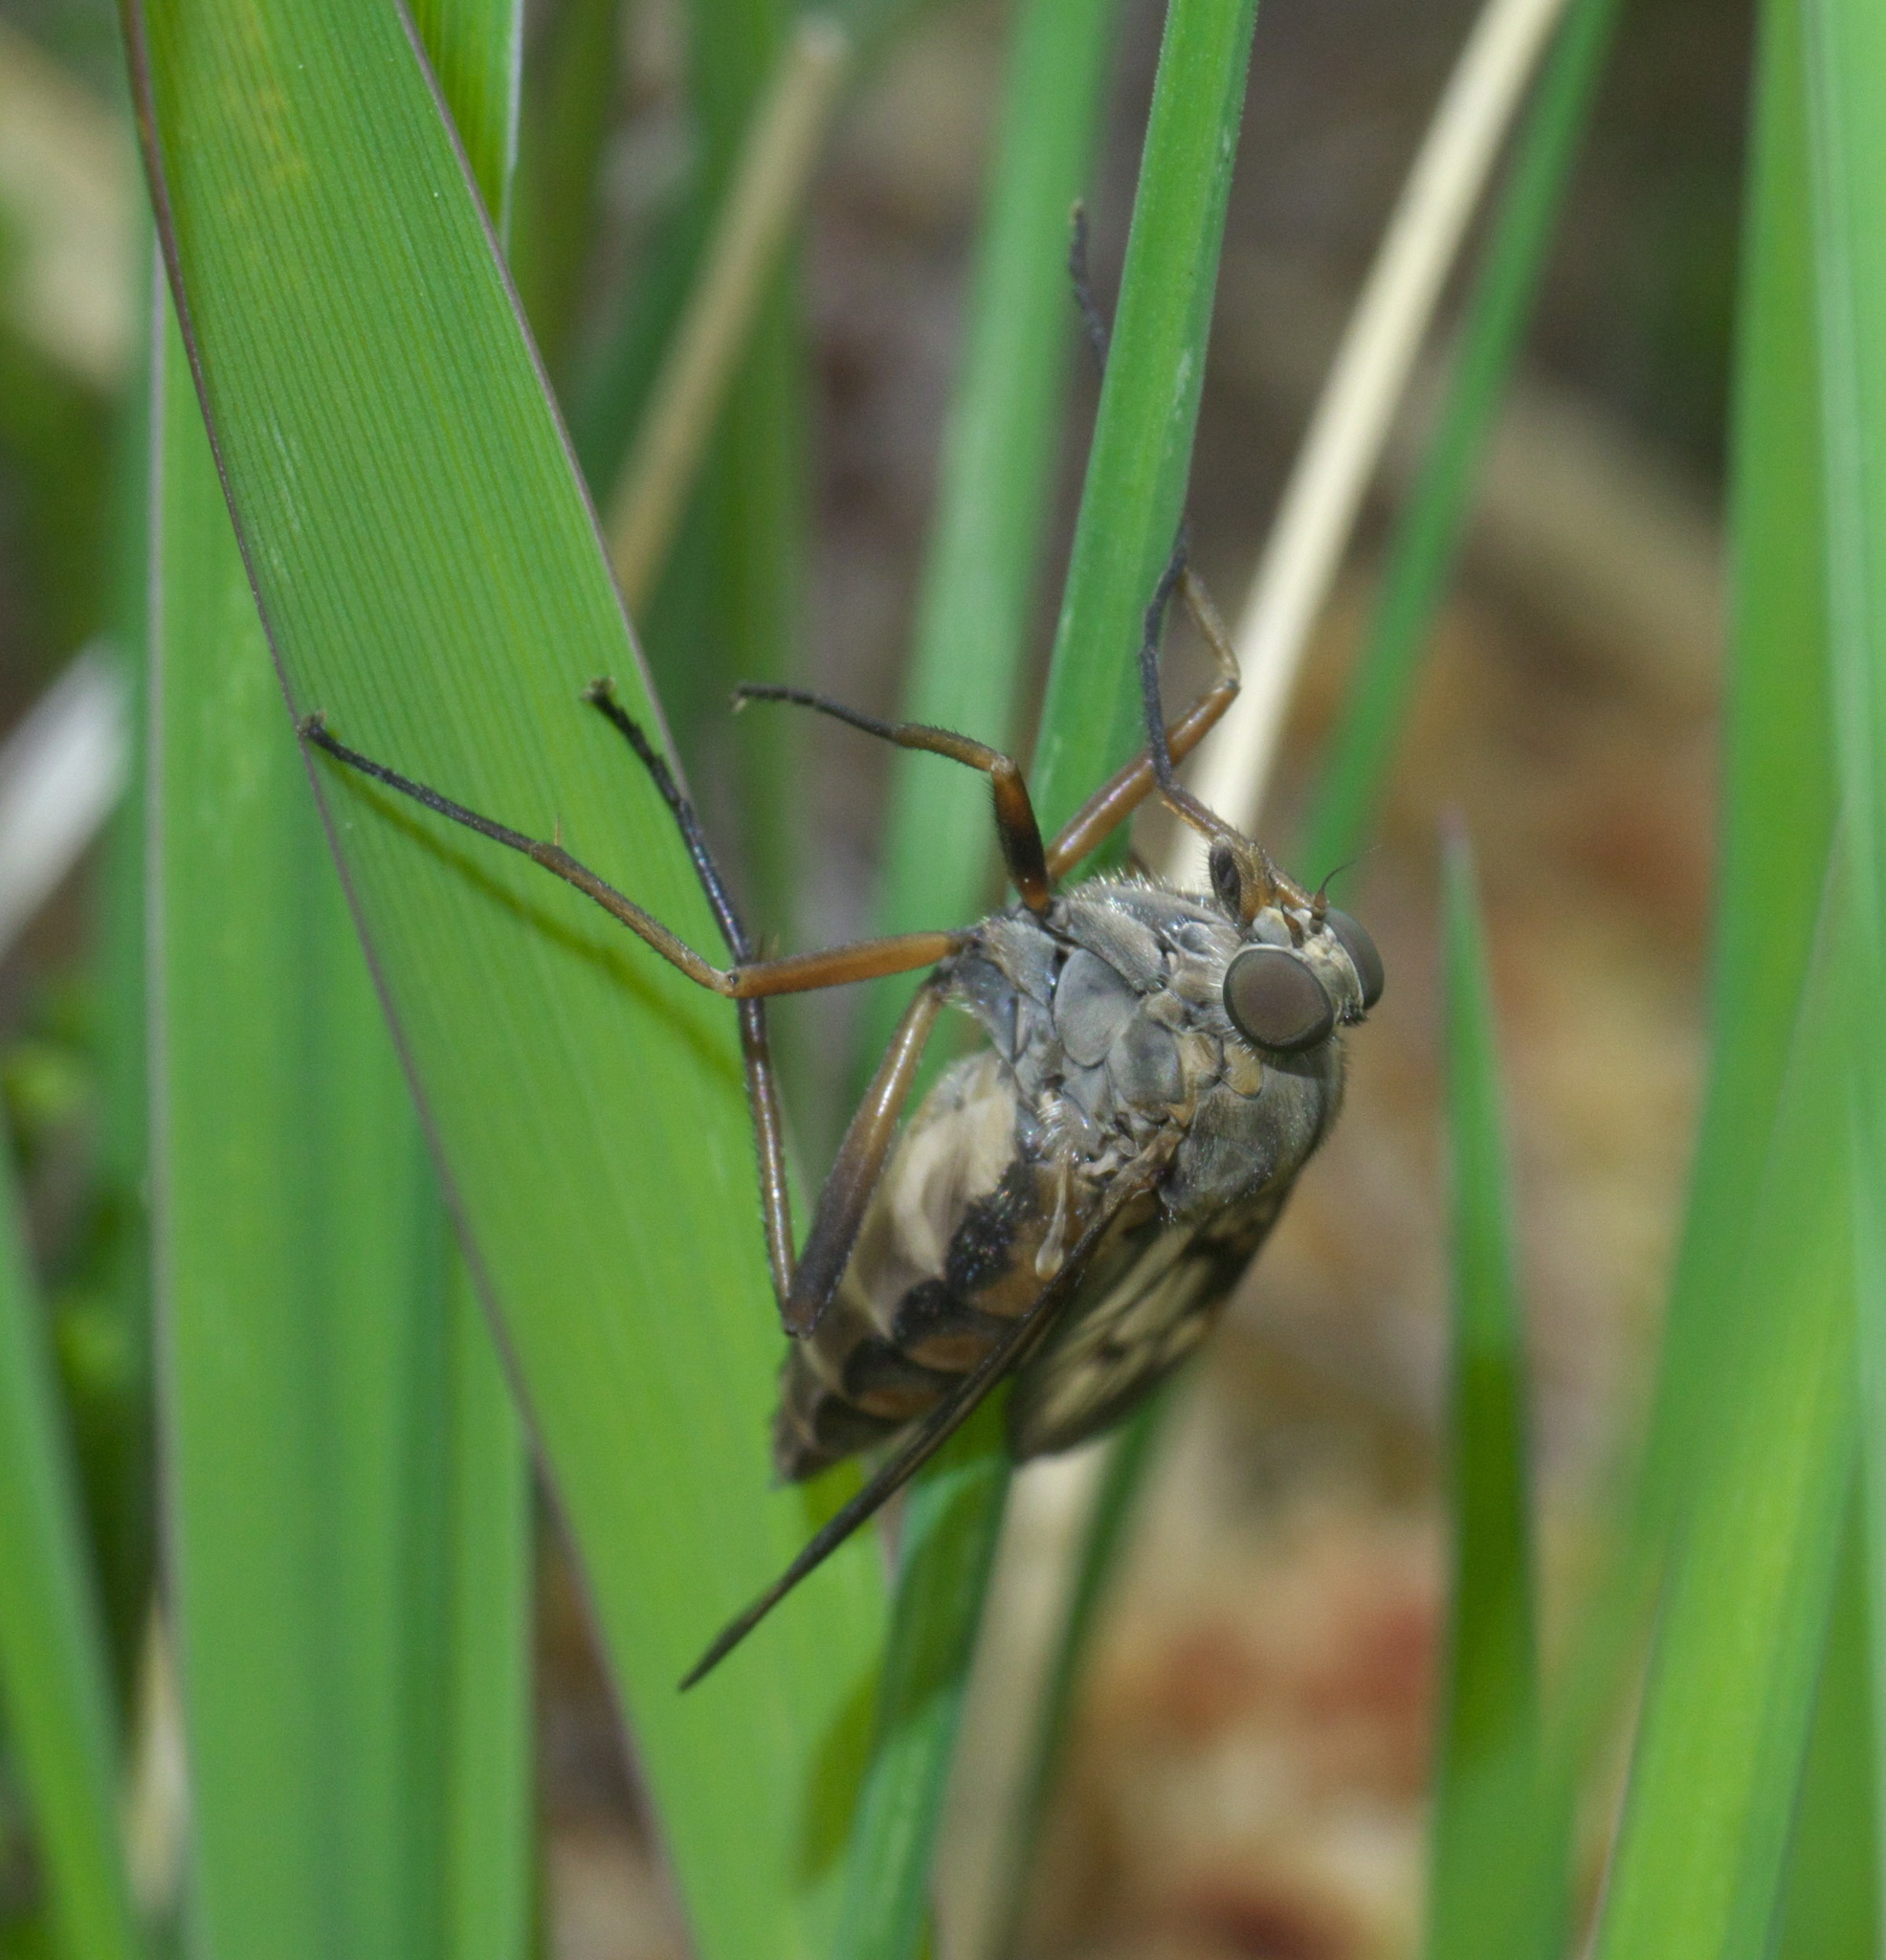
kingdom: Animalia
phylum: Arthropoda
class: Insecta
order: Diptera
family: Rhagionidae
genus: Rhagio
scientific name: Rhagio scolopacea
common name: Downlooker snipefly
